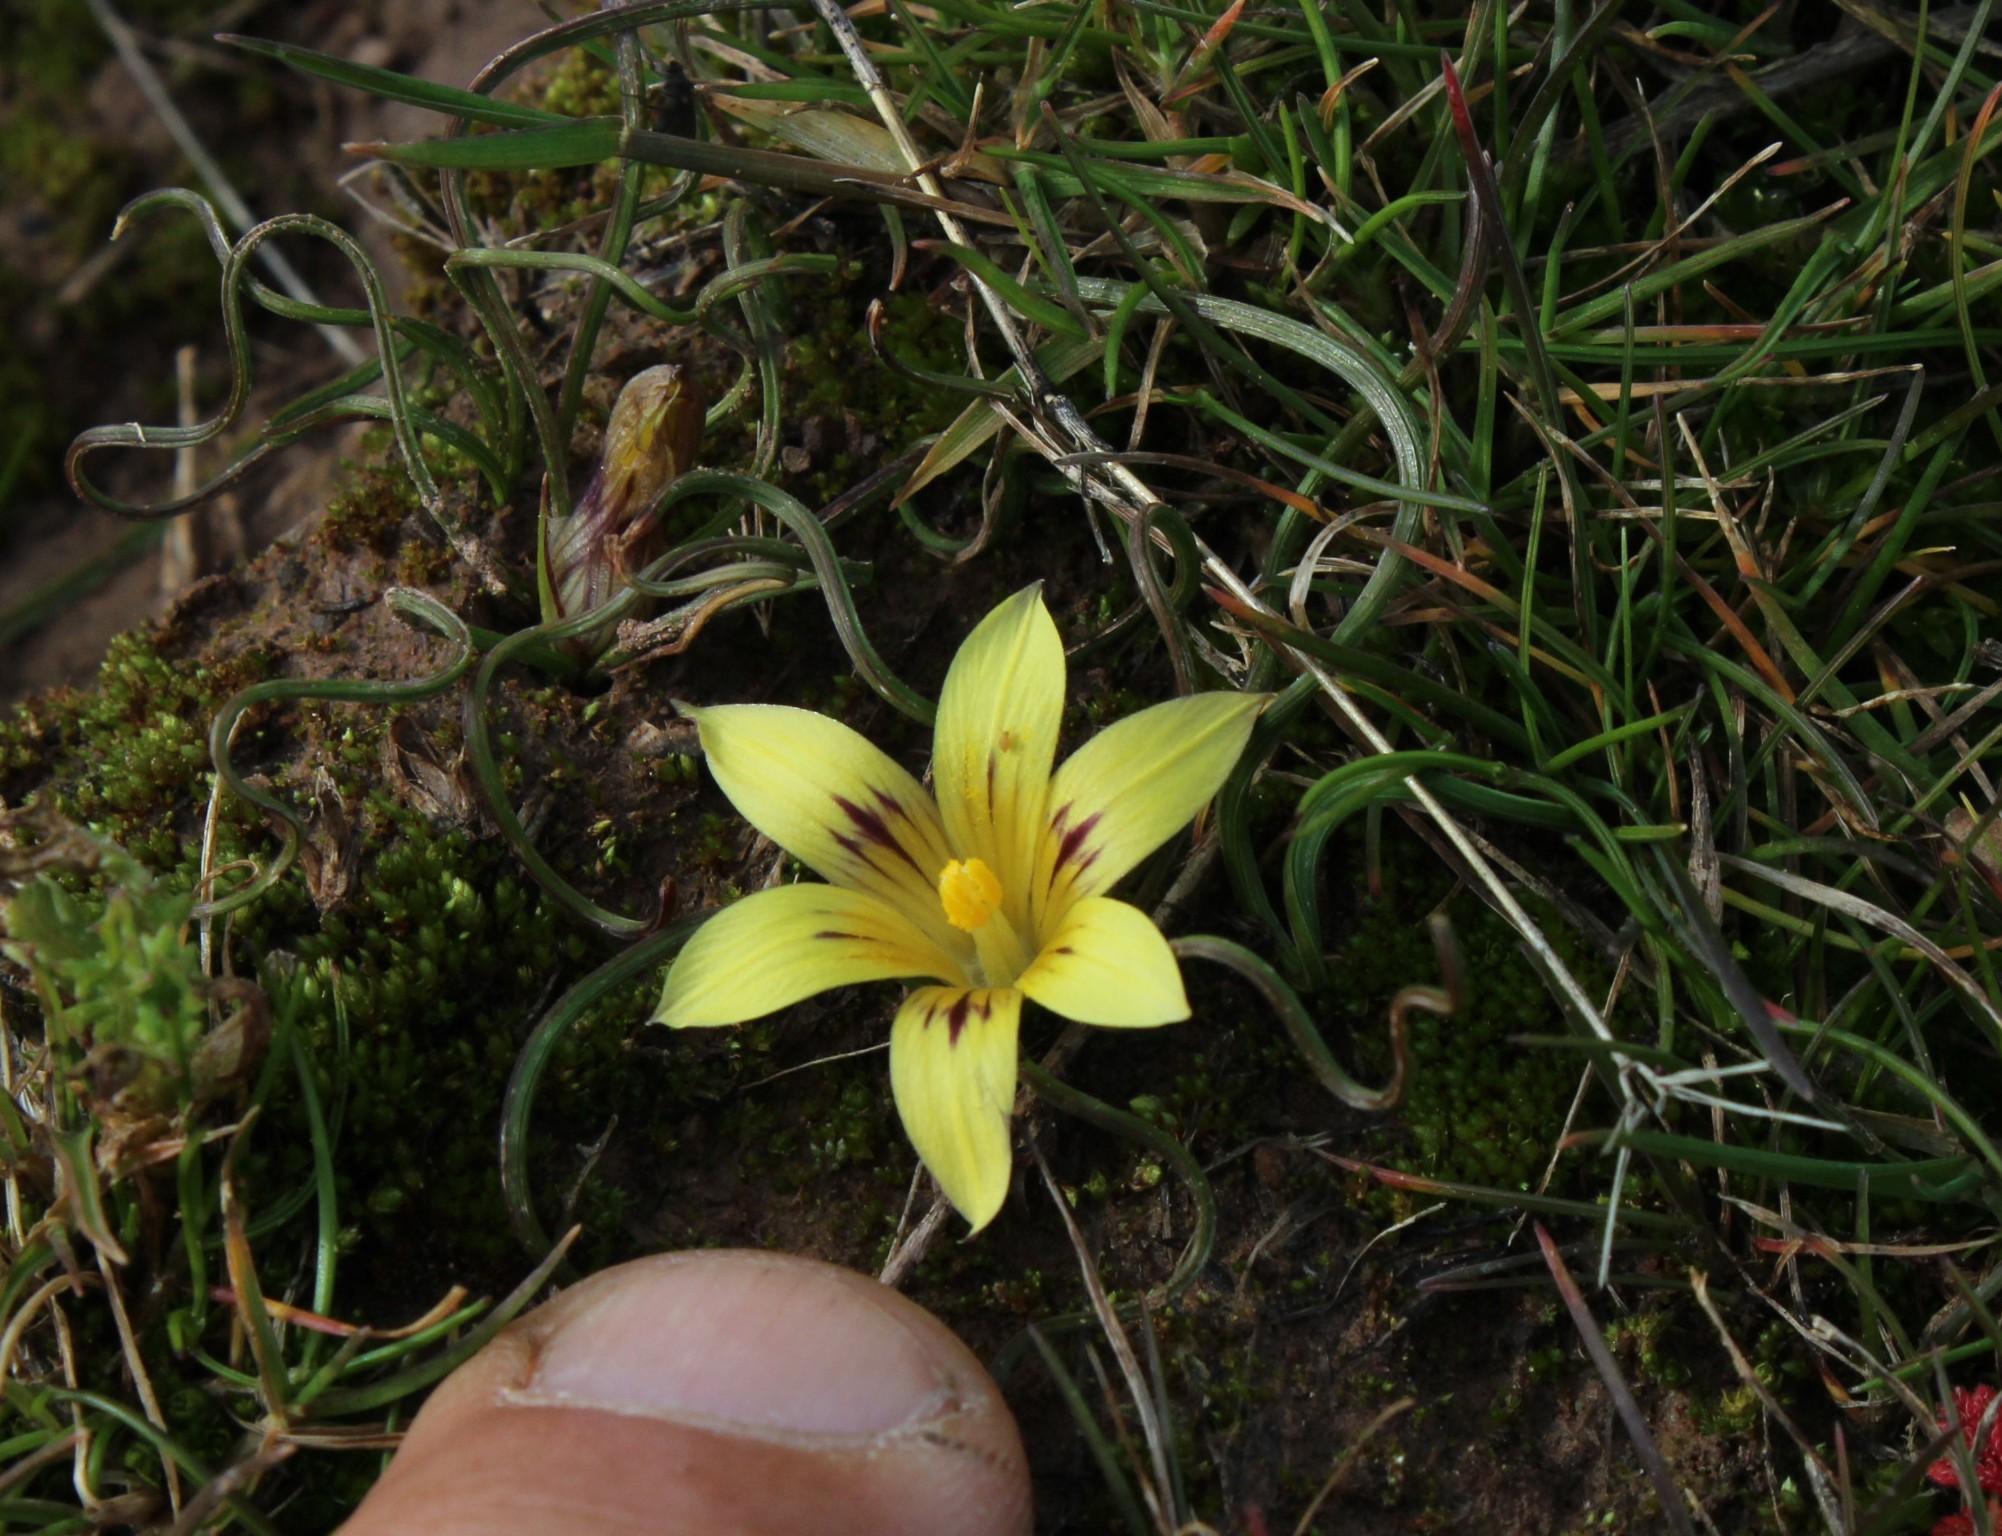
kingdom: Plantae
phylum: Tracheophyta
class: Liliopsida
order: Asparagales
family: Iridaceae
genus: Romulea
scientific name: Romulea austinii
